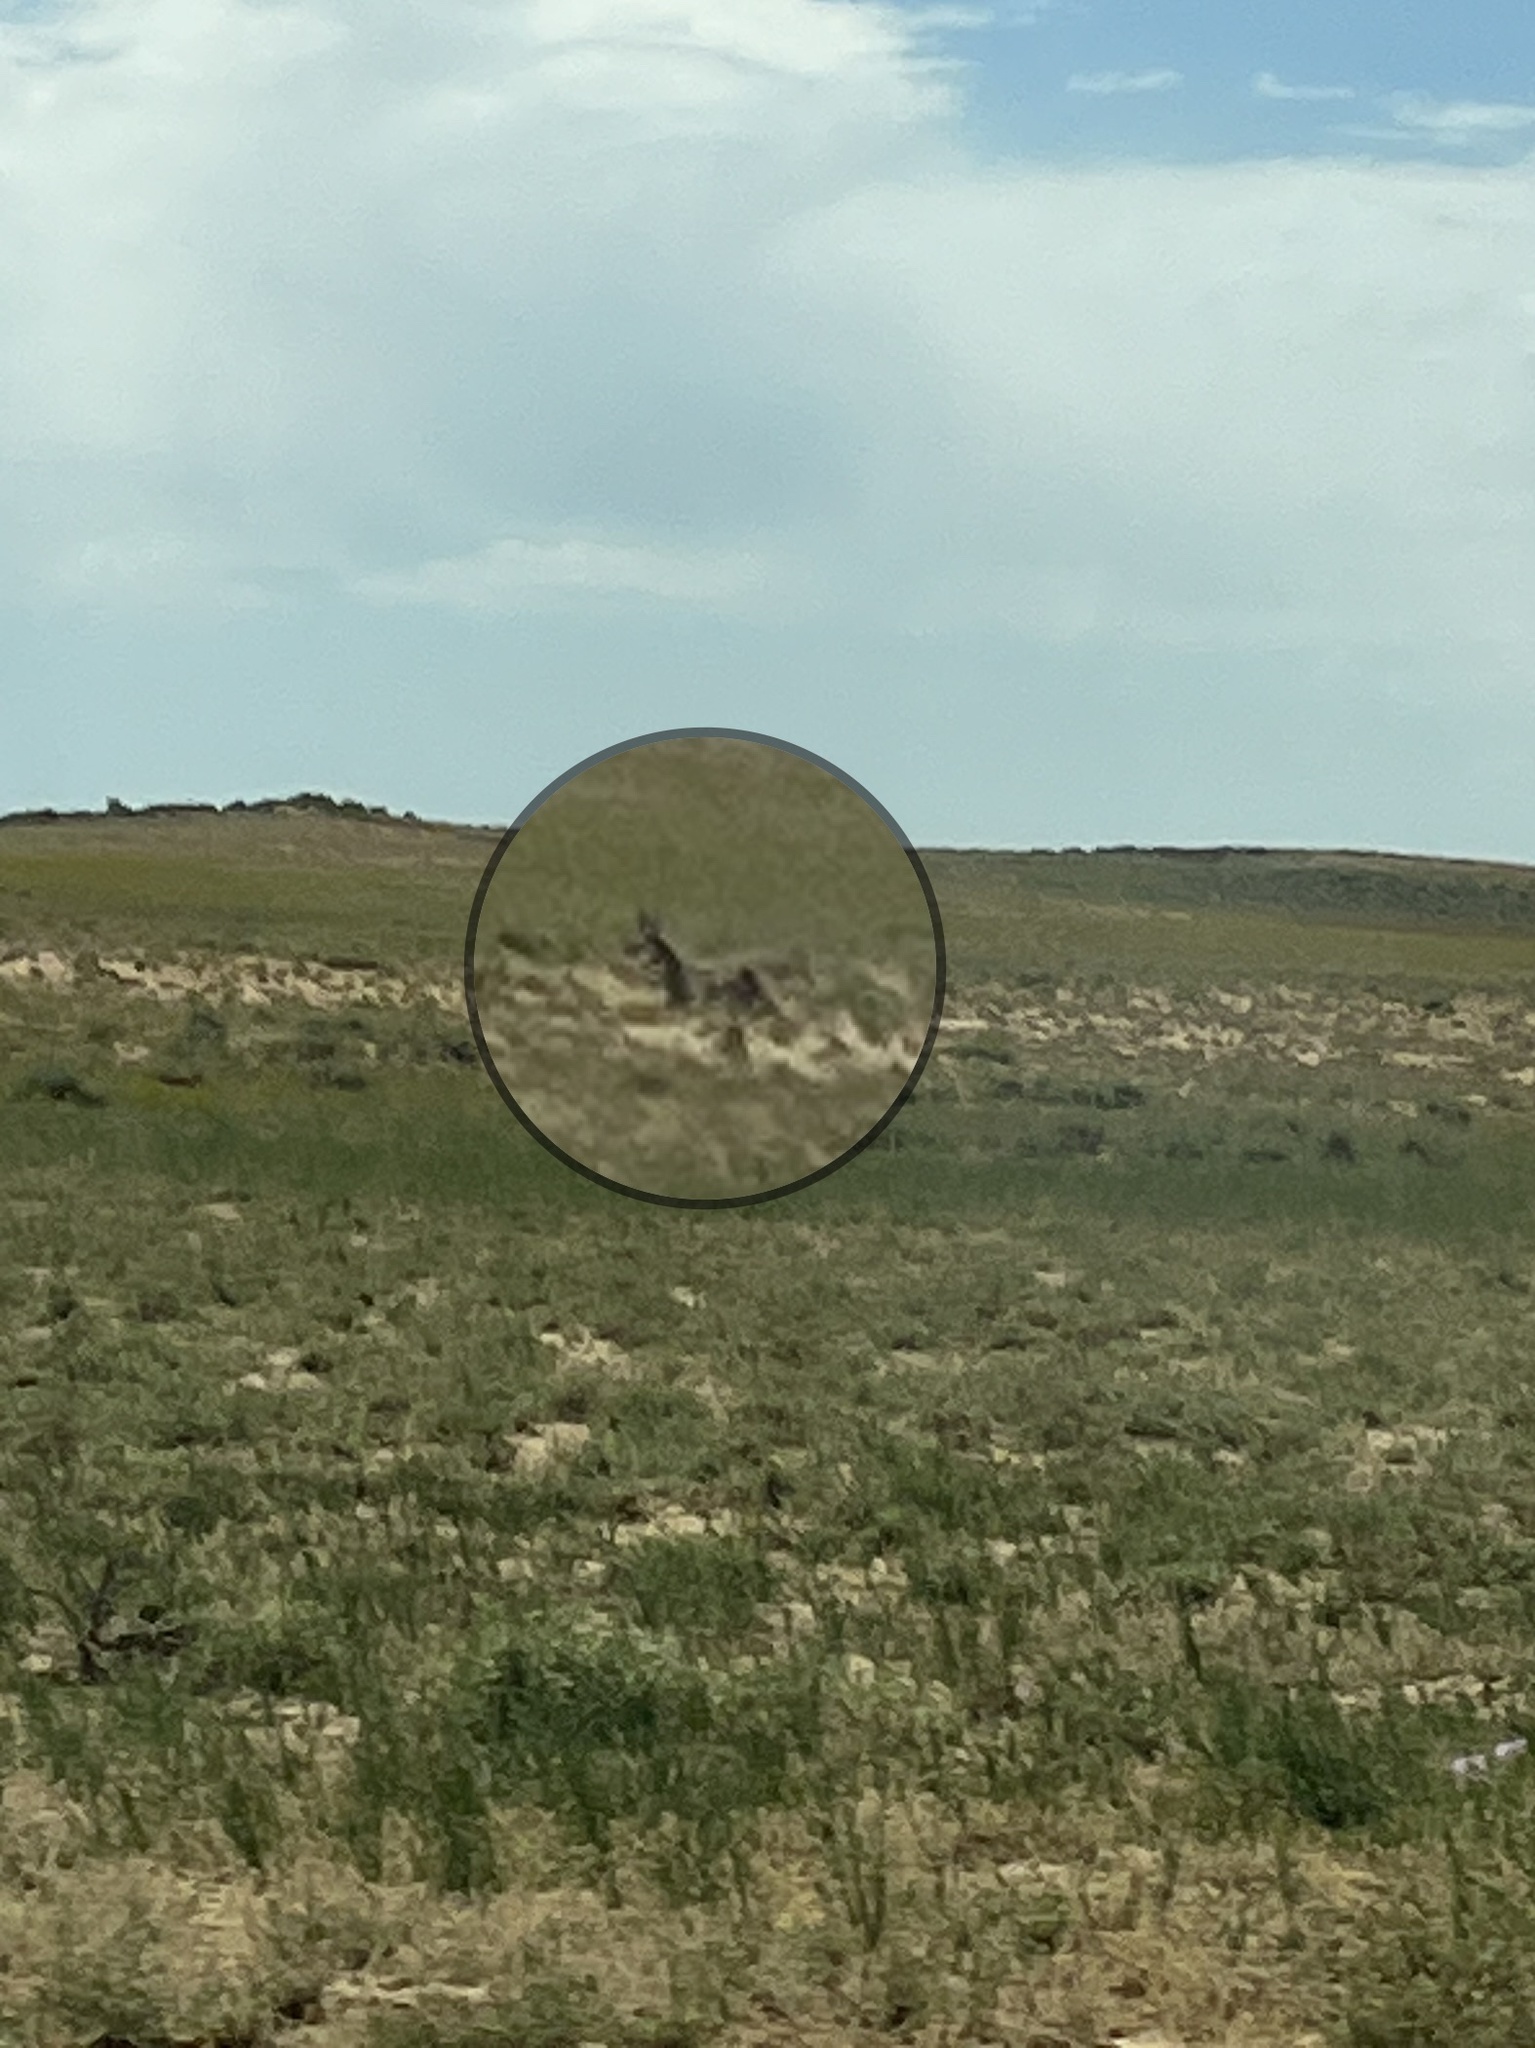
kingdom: Animalia
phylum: Chordata
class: Mammalia
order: Artiodactyla
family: Antilocapridae
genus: Antilocapra
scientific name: Antilocapra americana
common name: Pronghorn
